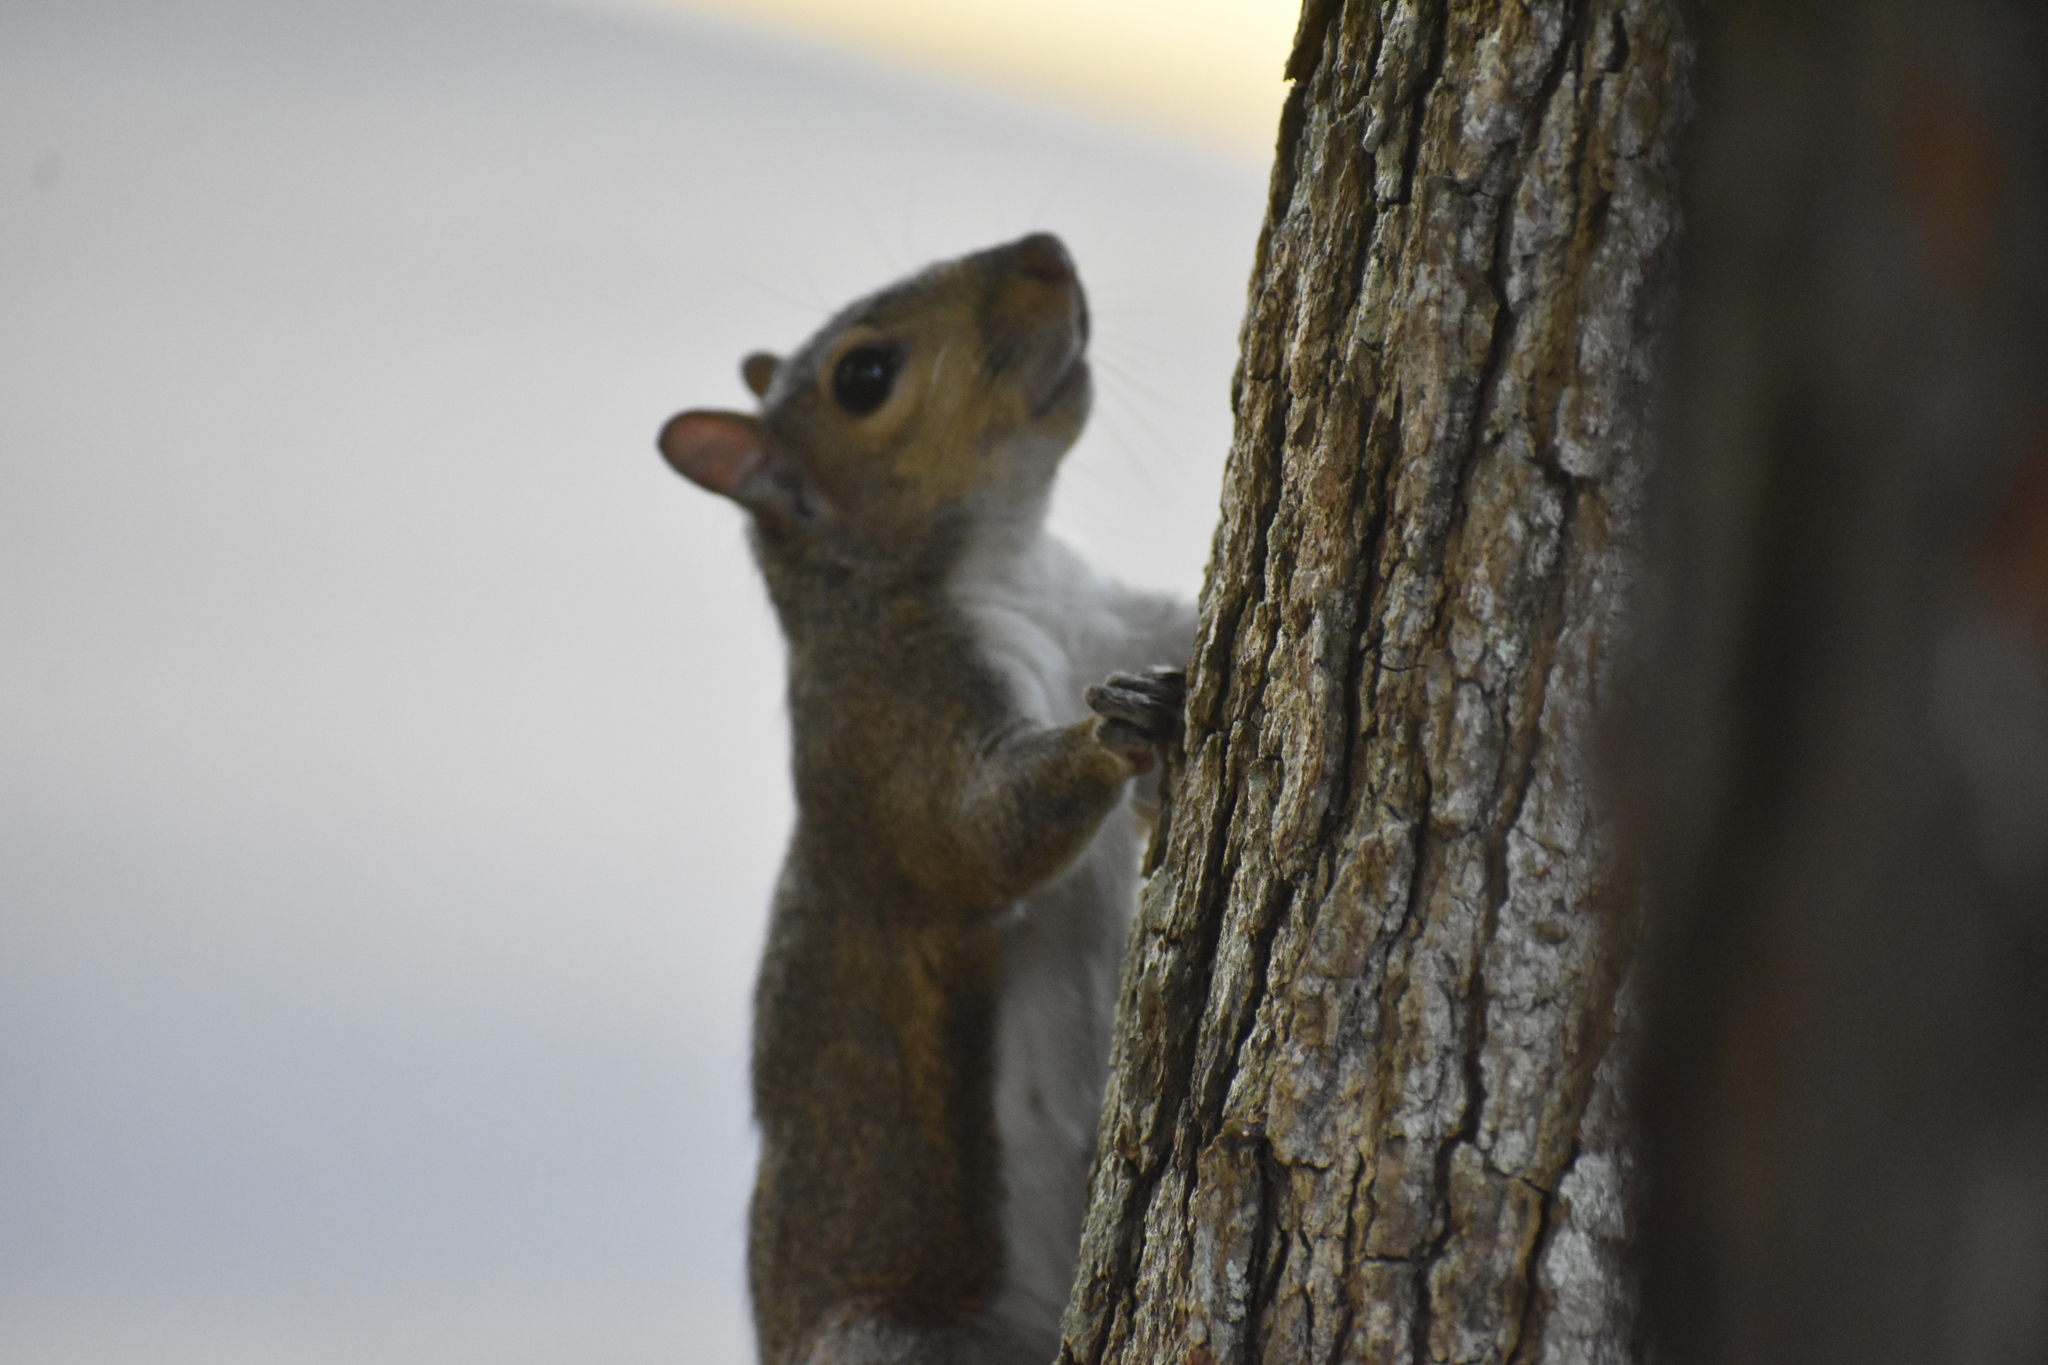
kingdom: Animalia
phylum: Chordata
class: Mammalia
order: Rodentia
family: Sciuridae
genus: Sciurus
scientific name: Sciurus carolinensis
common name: Eastern gray squirrel
